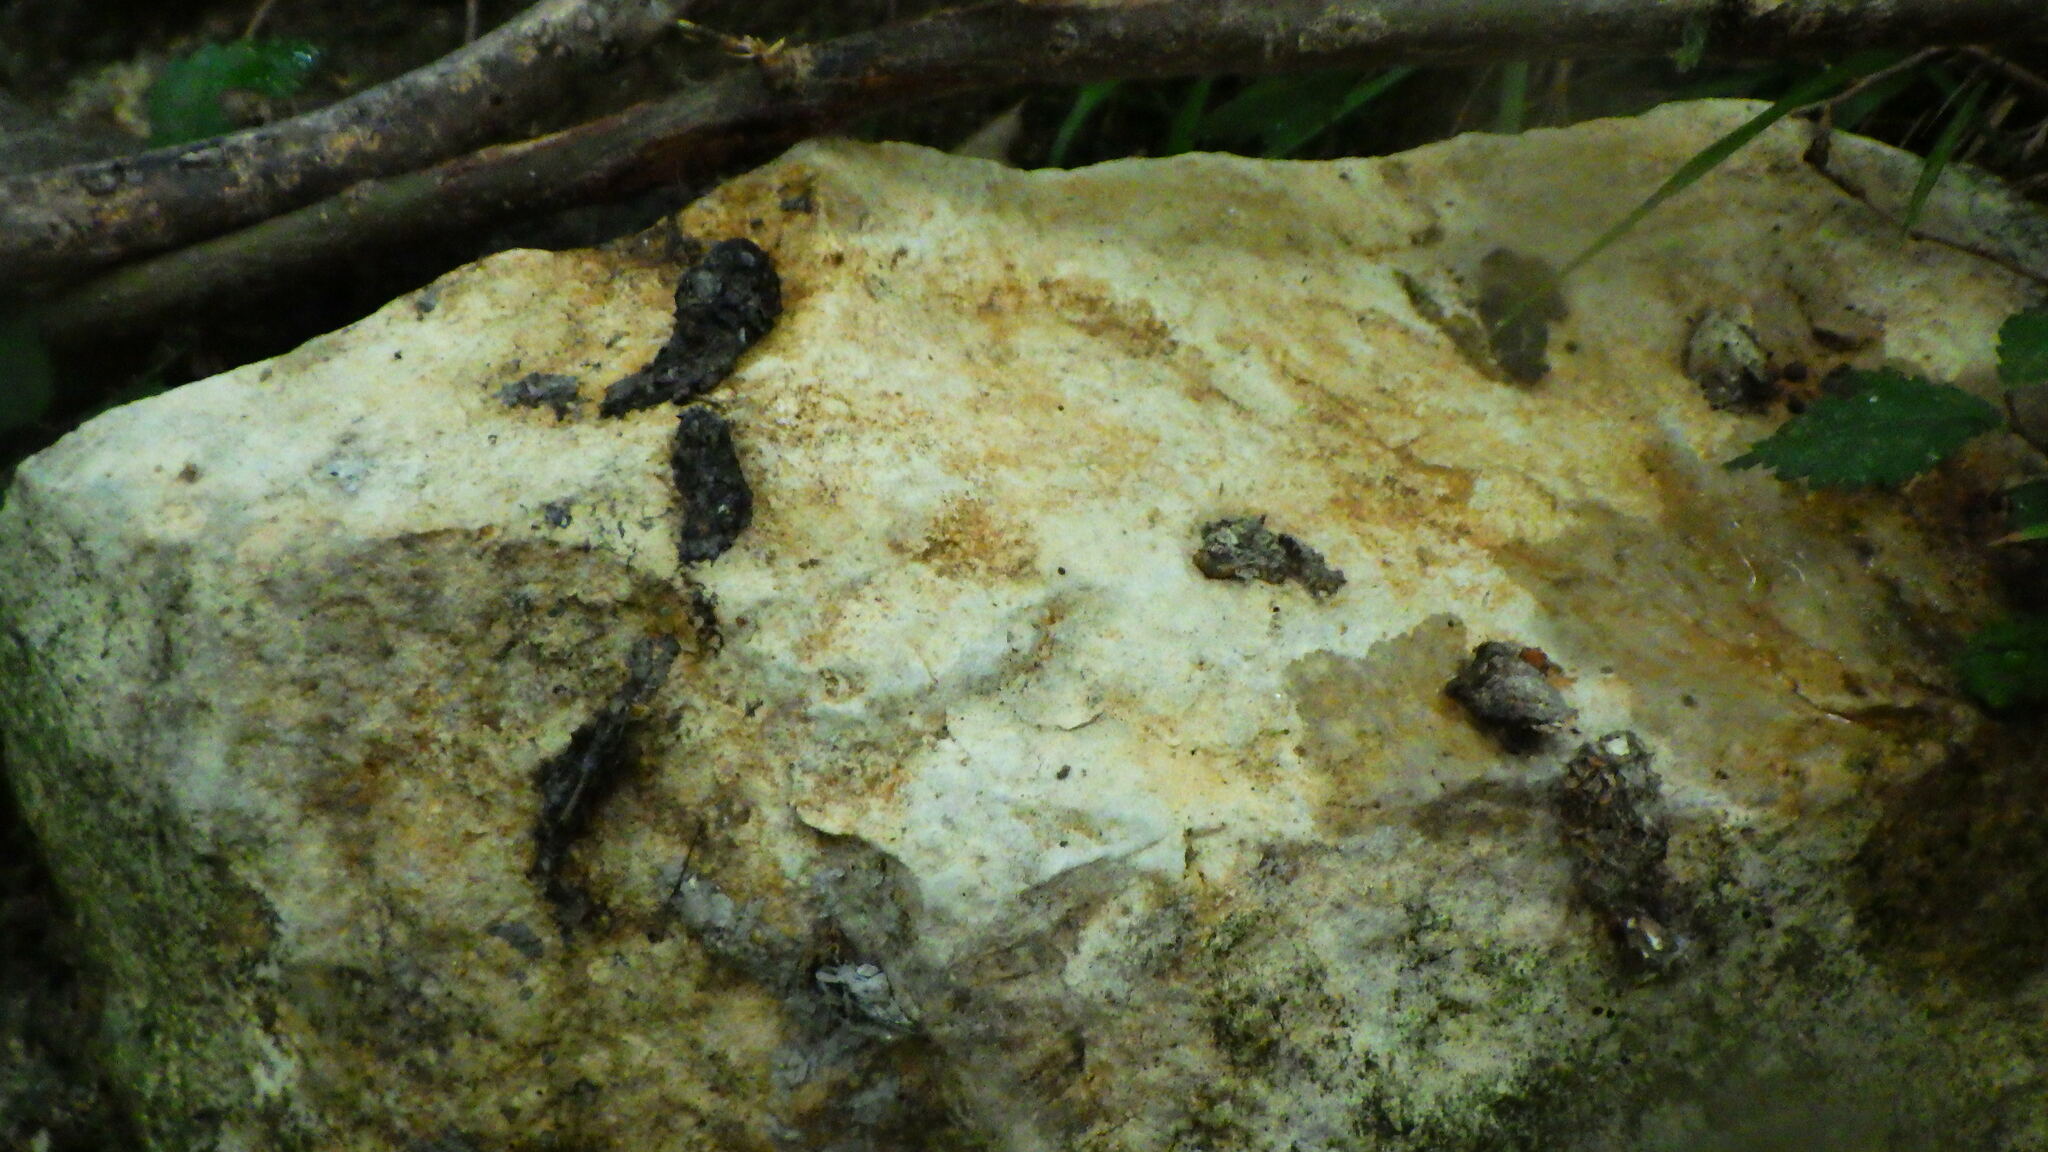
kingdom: Animalia
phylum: Chordata
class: Mammalia
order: Carnivora
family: Mustelidae
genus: Lutra
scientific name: Lutra lutra
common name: European otter
